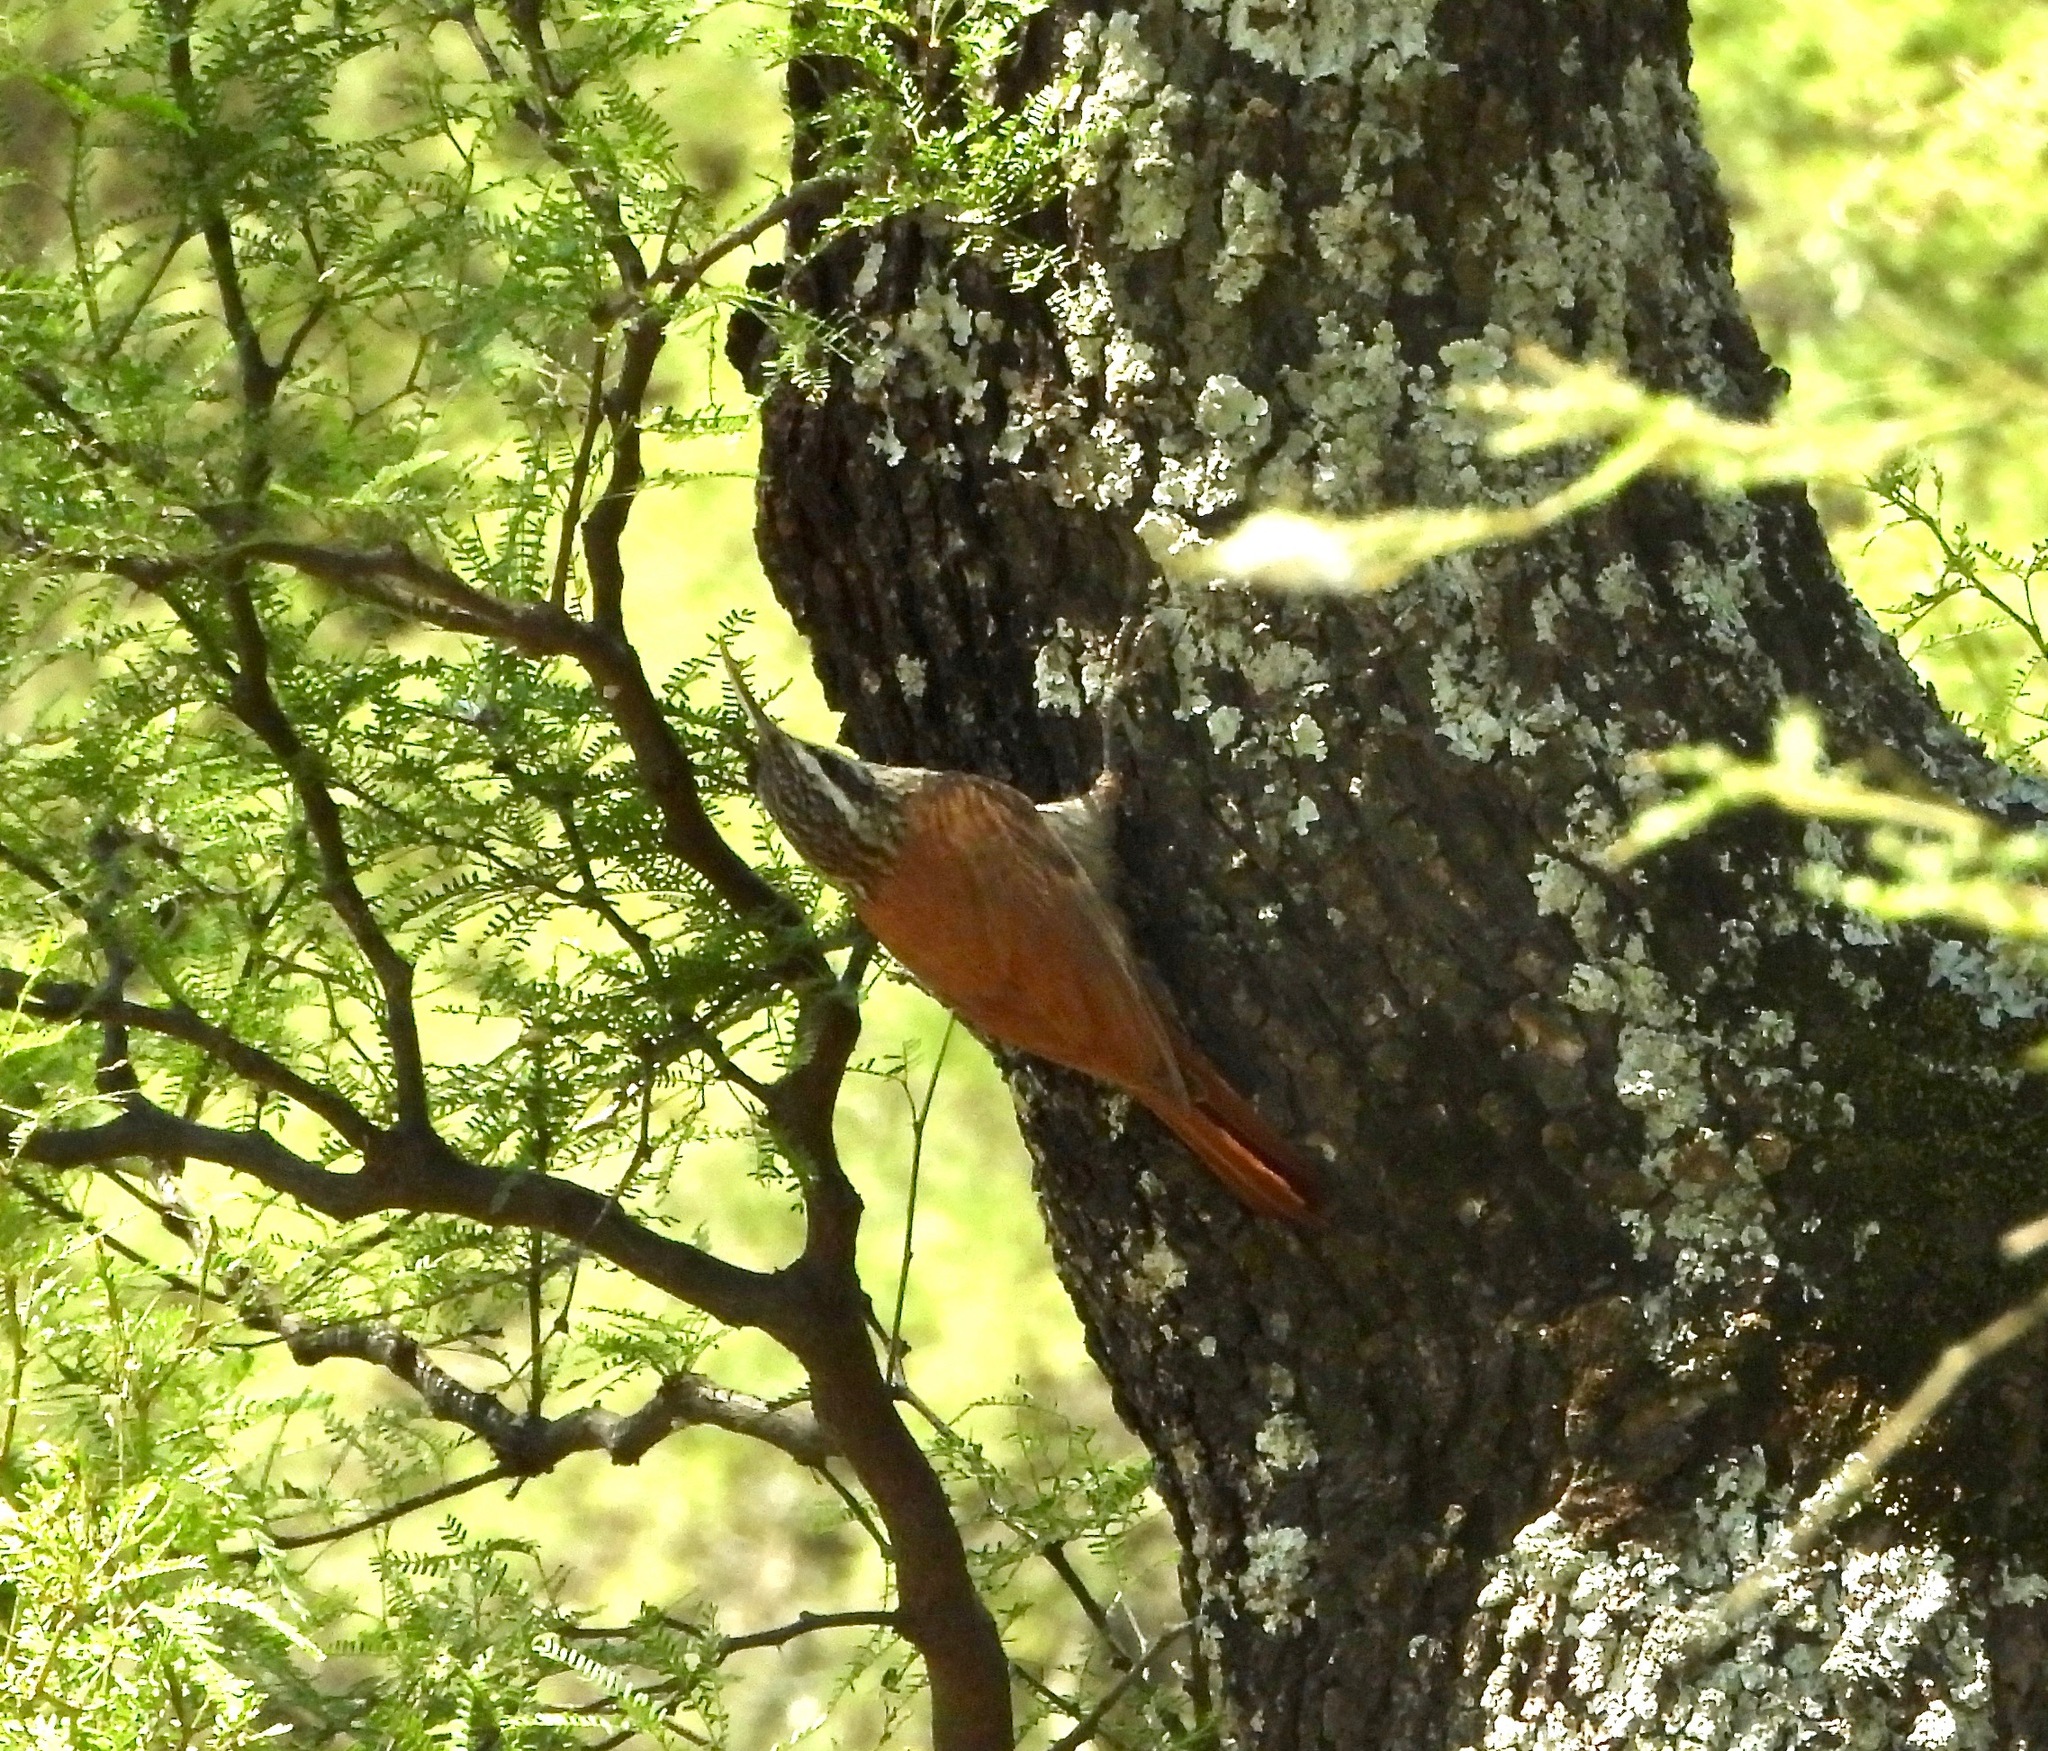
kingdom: Animalia
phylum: Chordata
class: Aves
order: Passeriformes
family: Furnariidae
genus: Lepidocolaptes
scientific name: Lepidocolaptes angustirostris
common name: Narrow-billed woodcreeper
